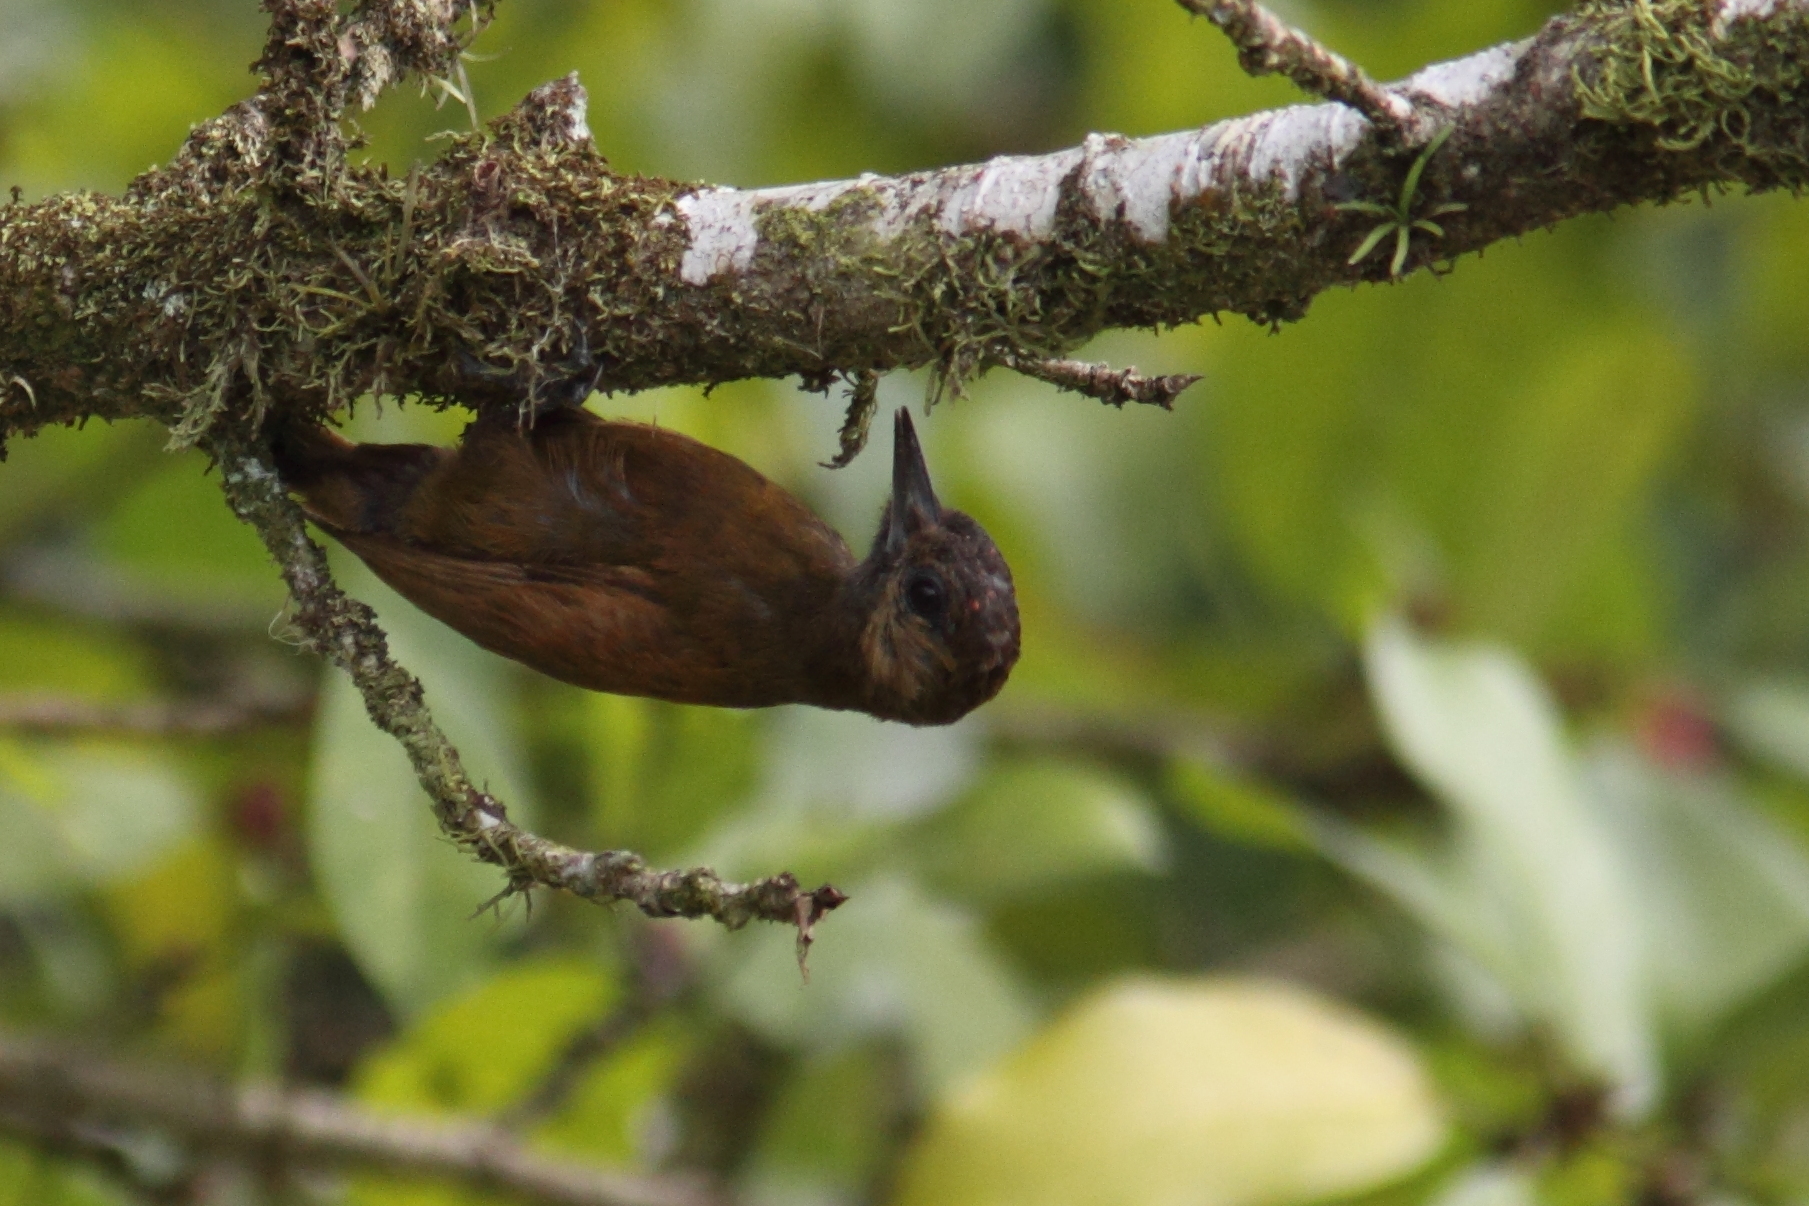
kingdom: Animalia
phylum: Chordata
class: Aves
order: Piciformes
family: Picidae
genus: Leuconotopicus
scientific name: Leuconotopicus fumigatus
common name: Smoky-brown woodpecker
